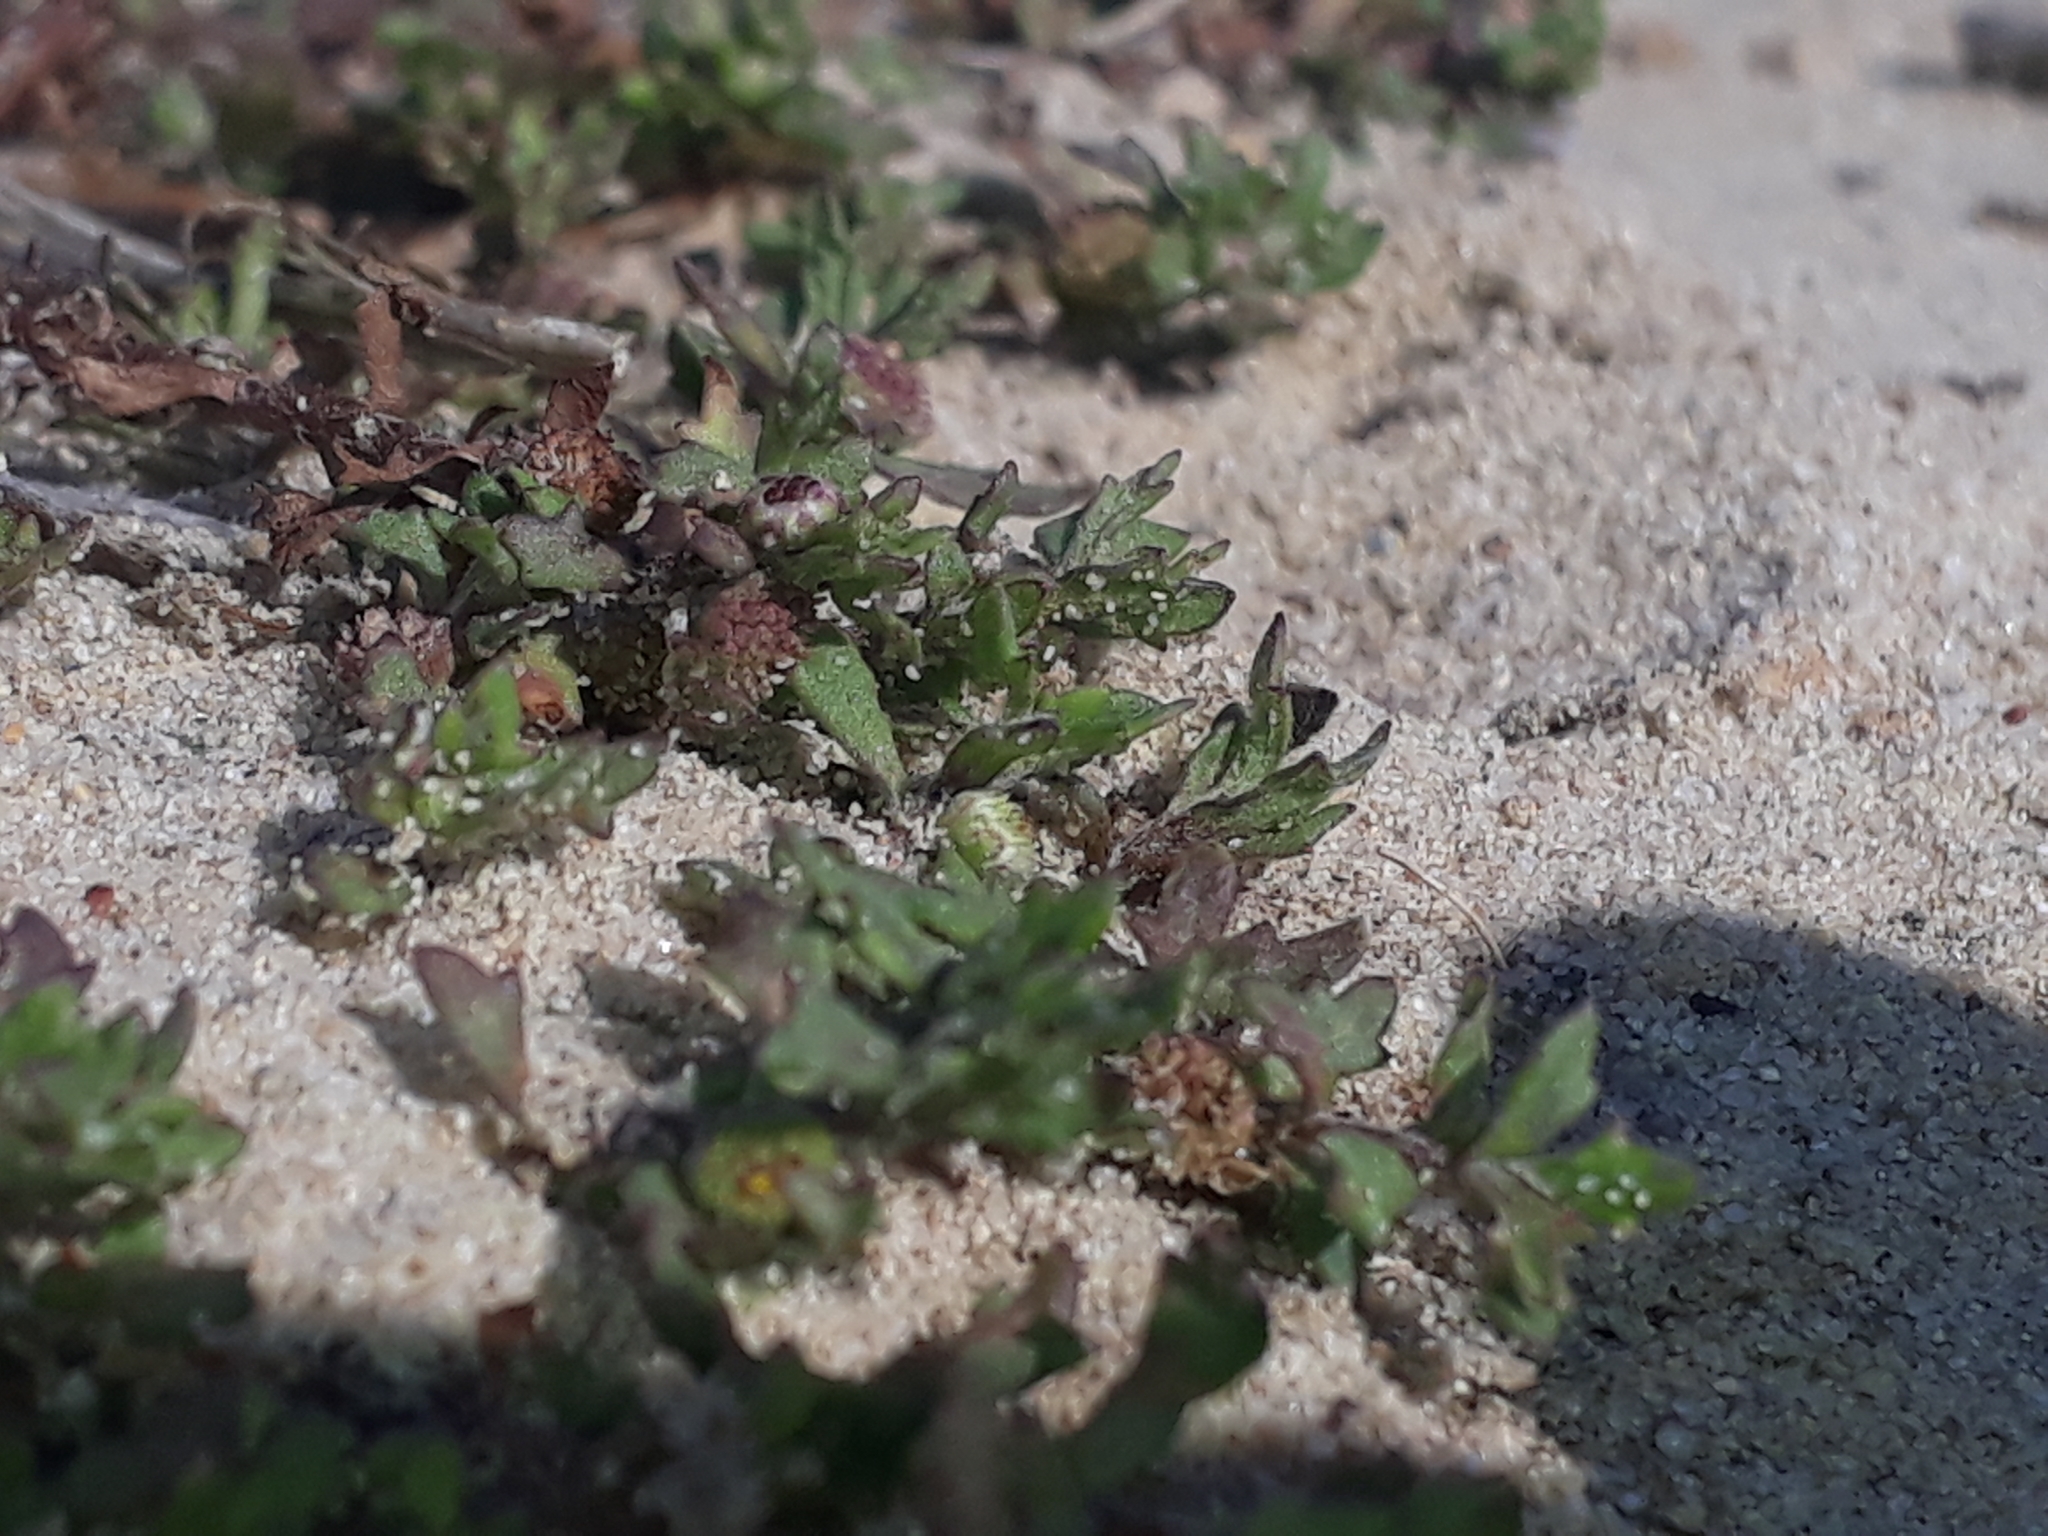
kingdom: Plantae
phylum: Tracheophyta
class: Magnoliopsida
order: Asterales
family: Asteraceae
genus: Centipeda
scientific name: Centipeda aotearoana
